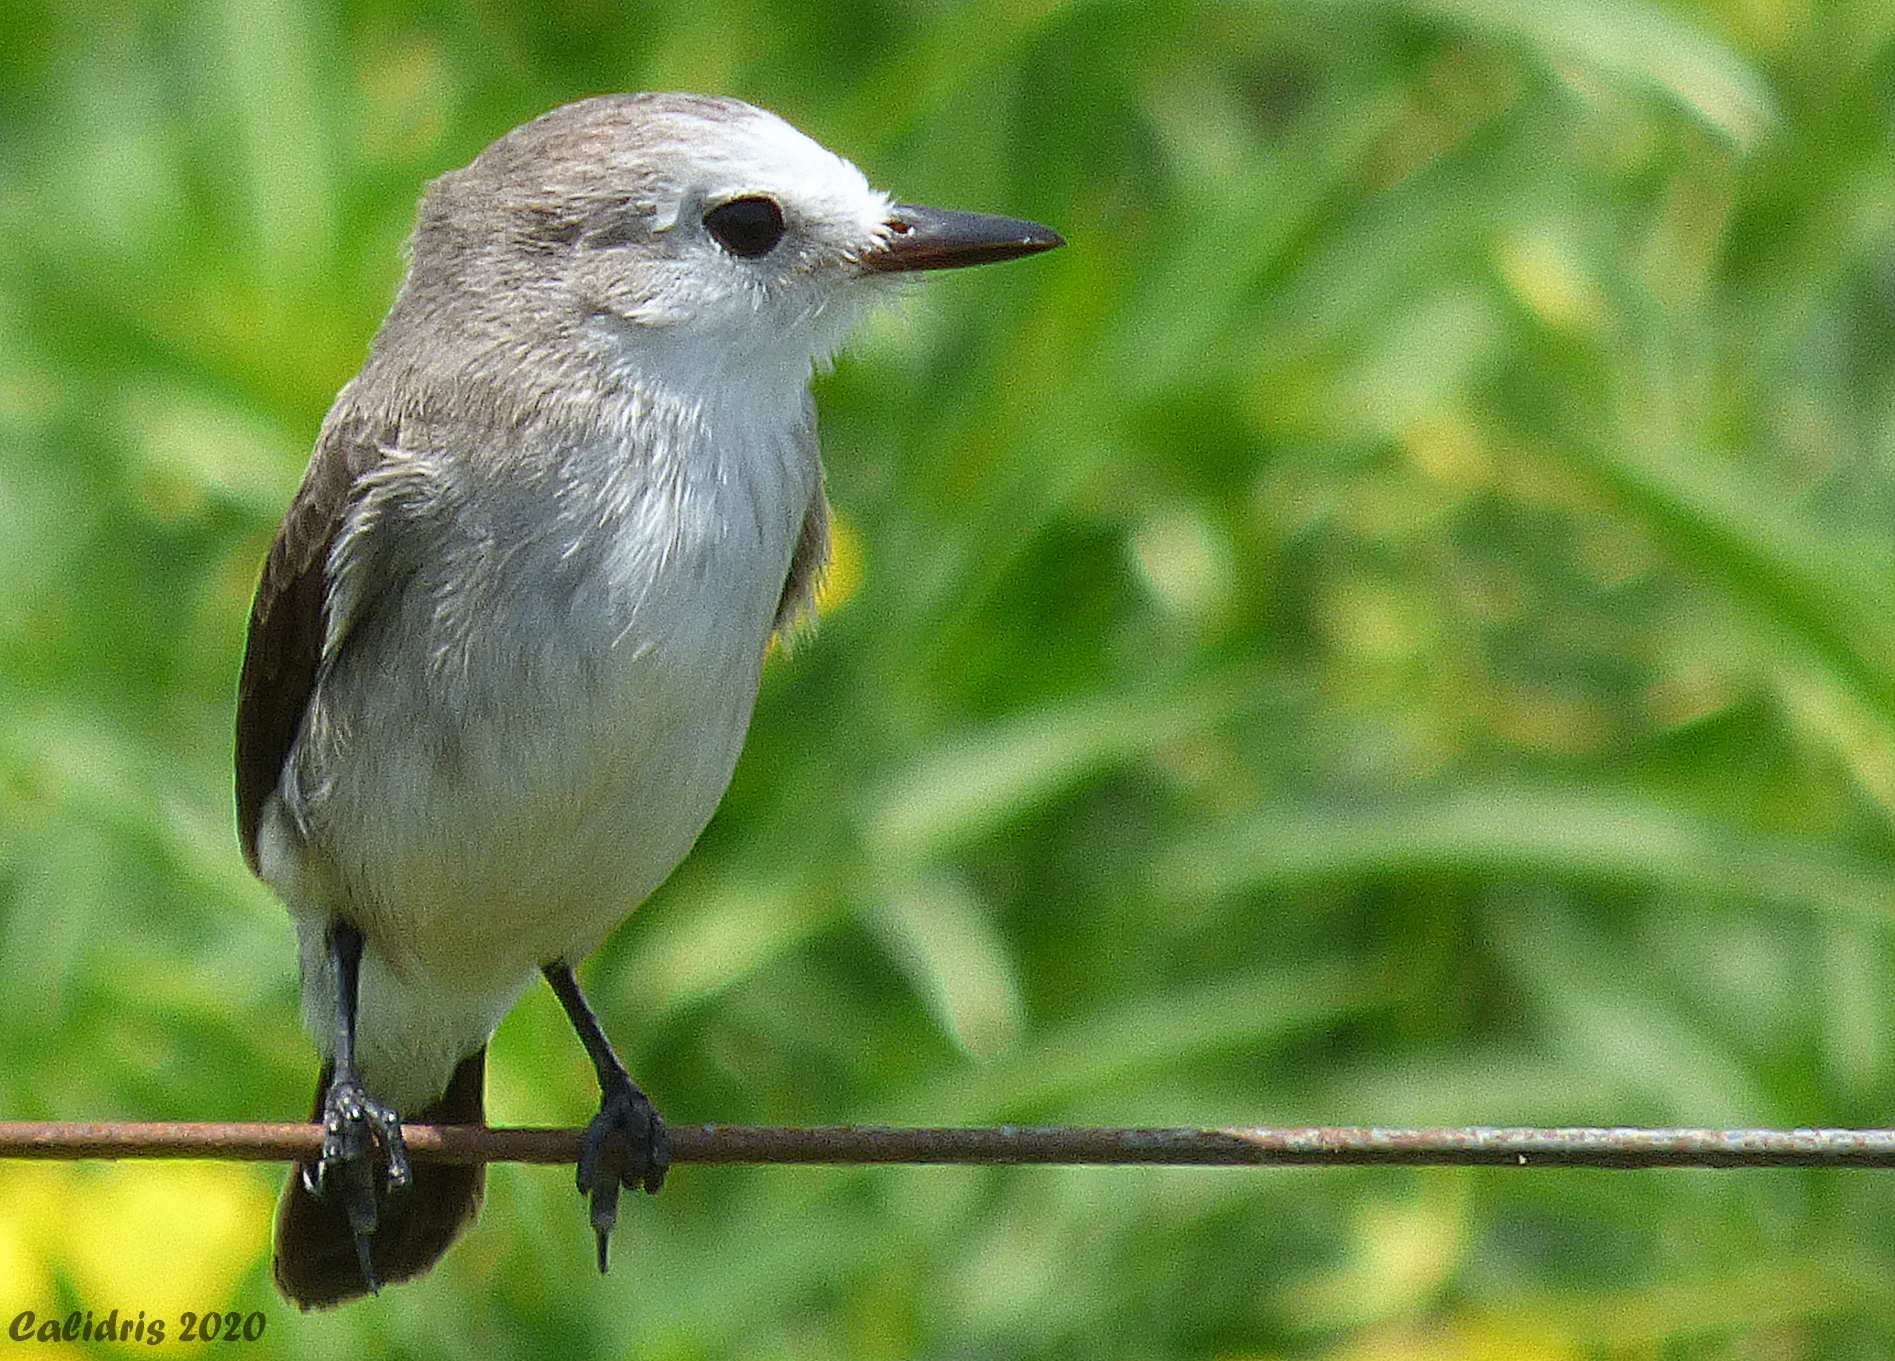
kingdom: Animalia
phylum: Chordata
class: Aves
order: Passeriformes
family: Tyrannidae
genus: Arundinicola
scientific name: Arundinicola leucocephala
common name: White-headed marsh tyrant
